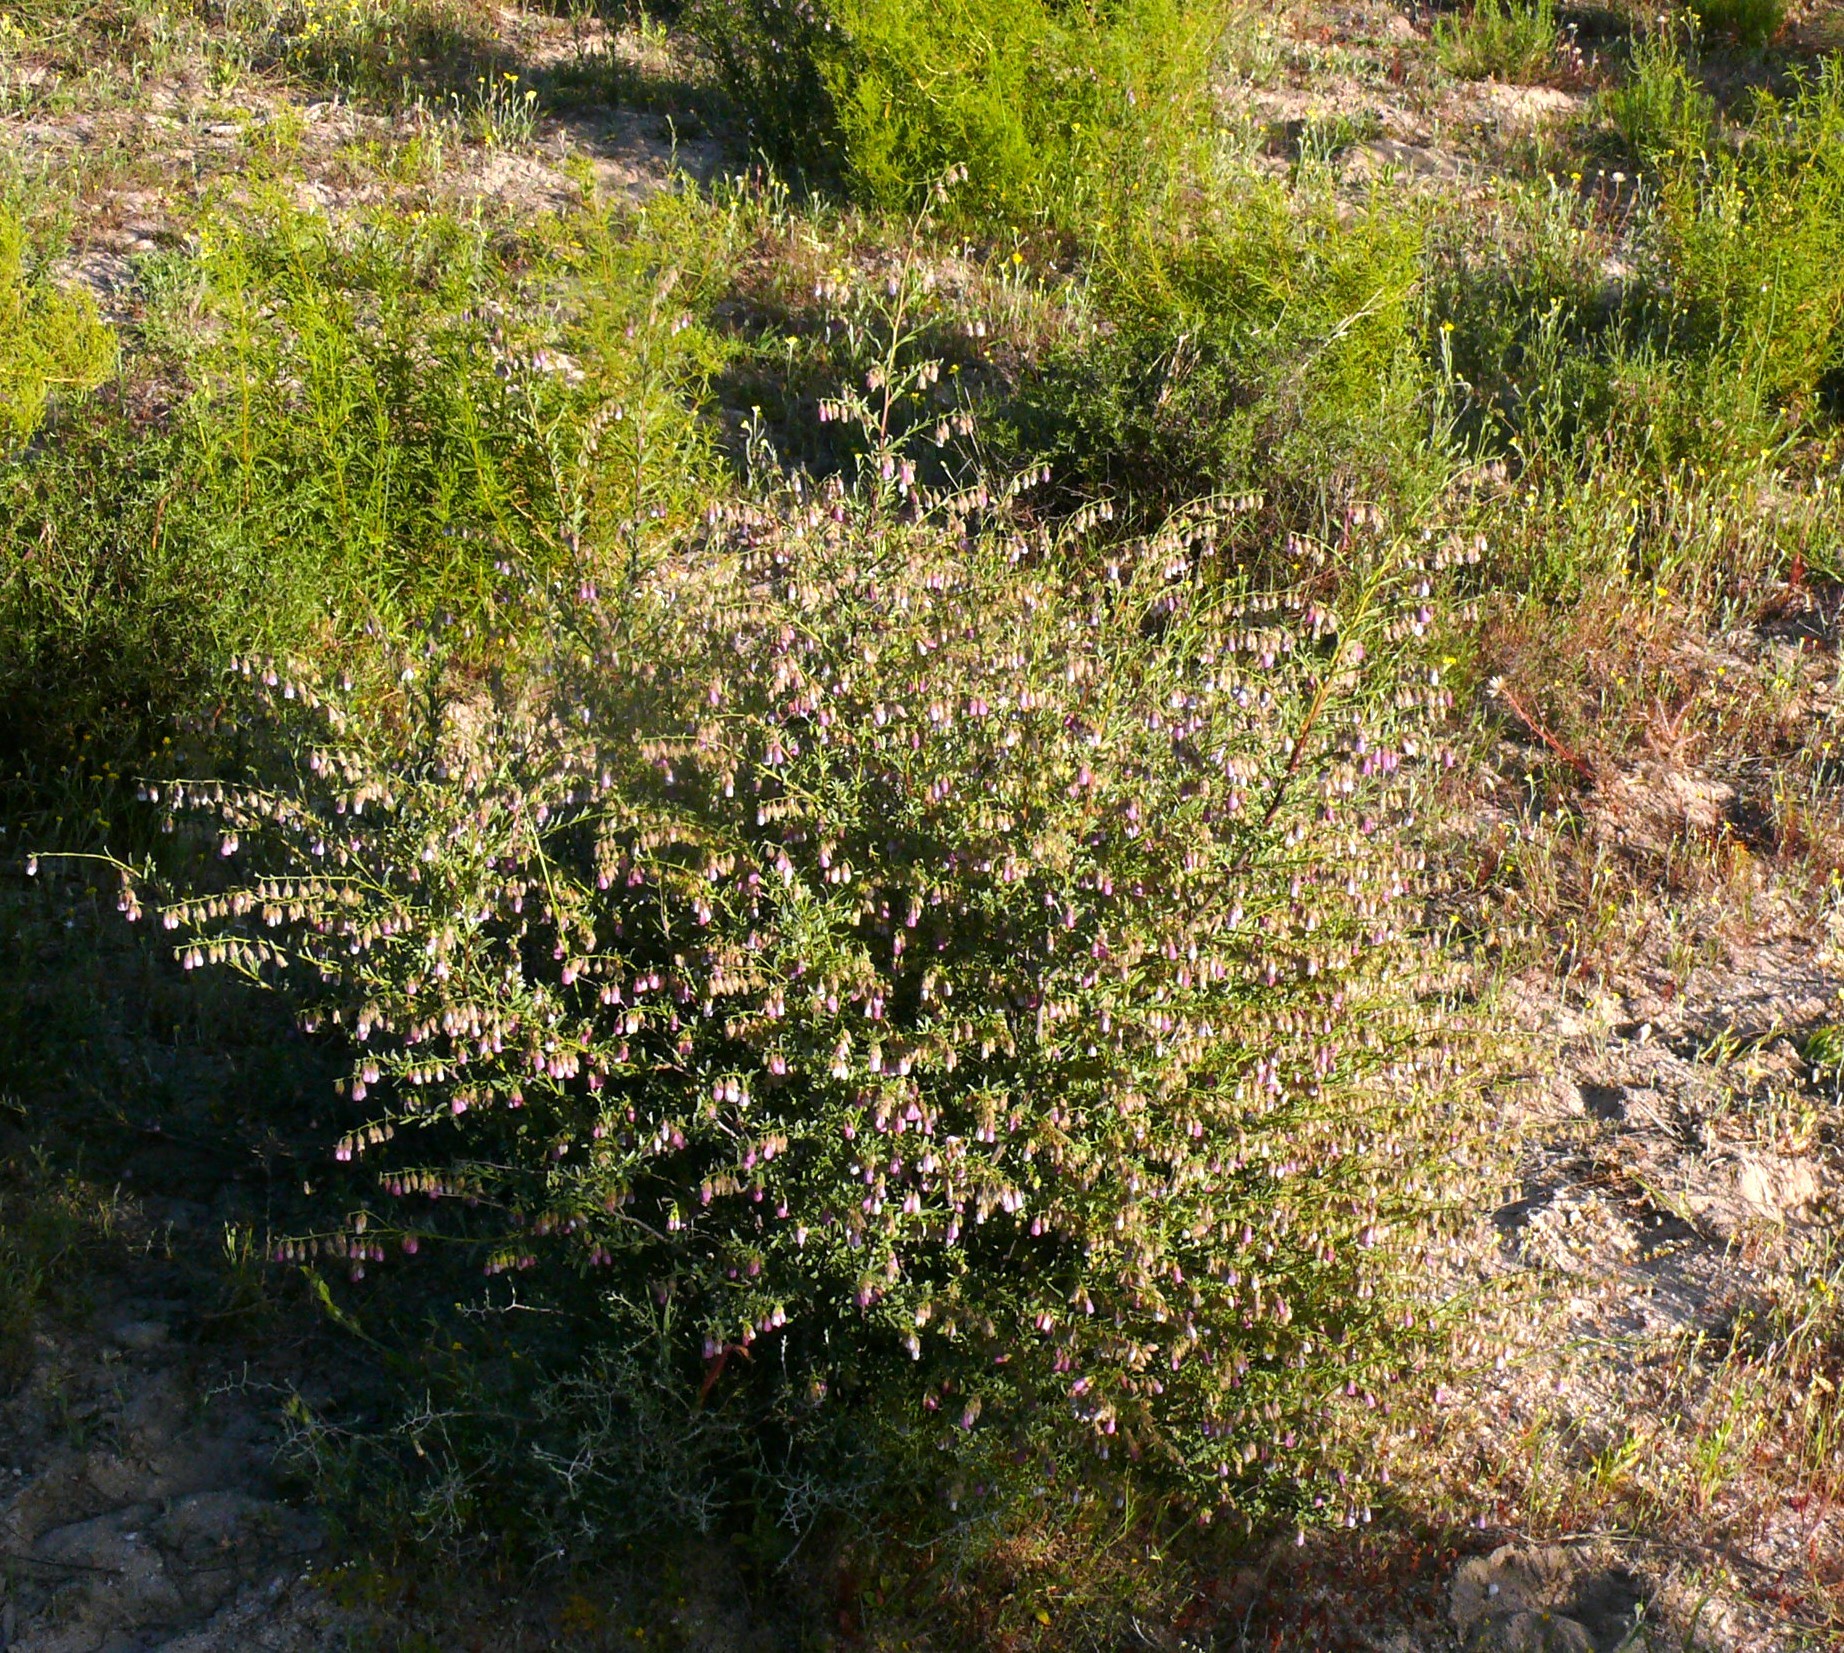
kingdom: Plantae
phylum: Tracheophyta
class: Magnoliopsida
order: Malvales
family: Malvaceae
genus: Hermannia
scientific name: Hermannia trifurca
